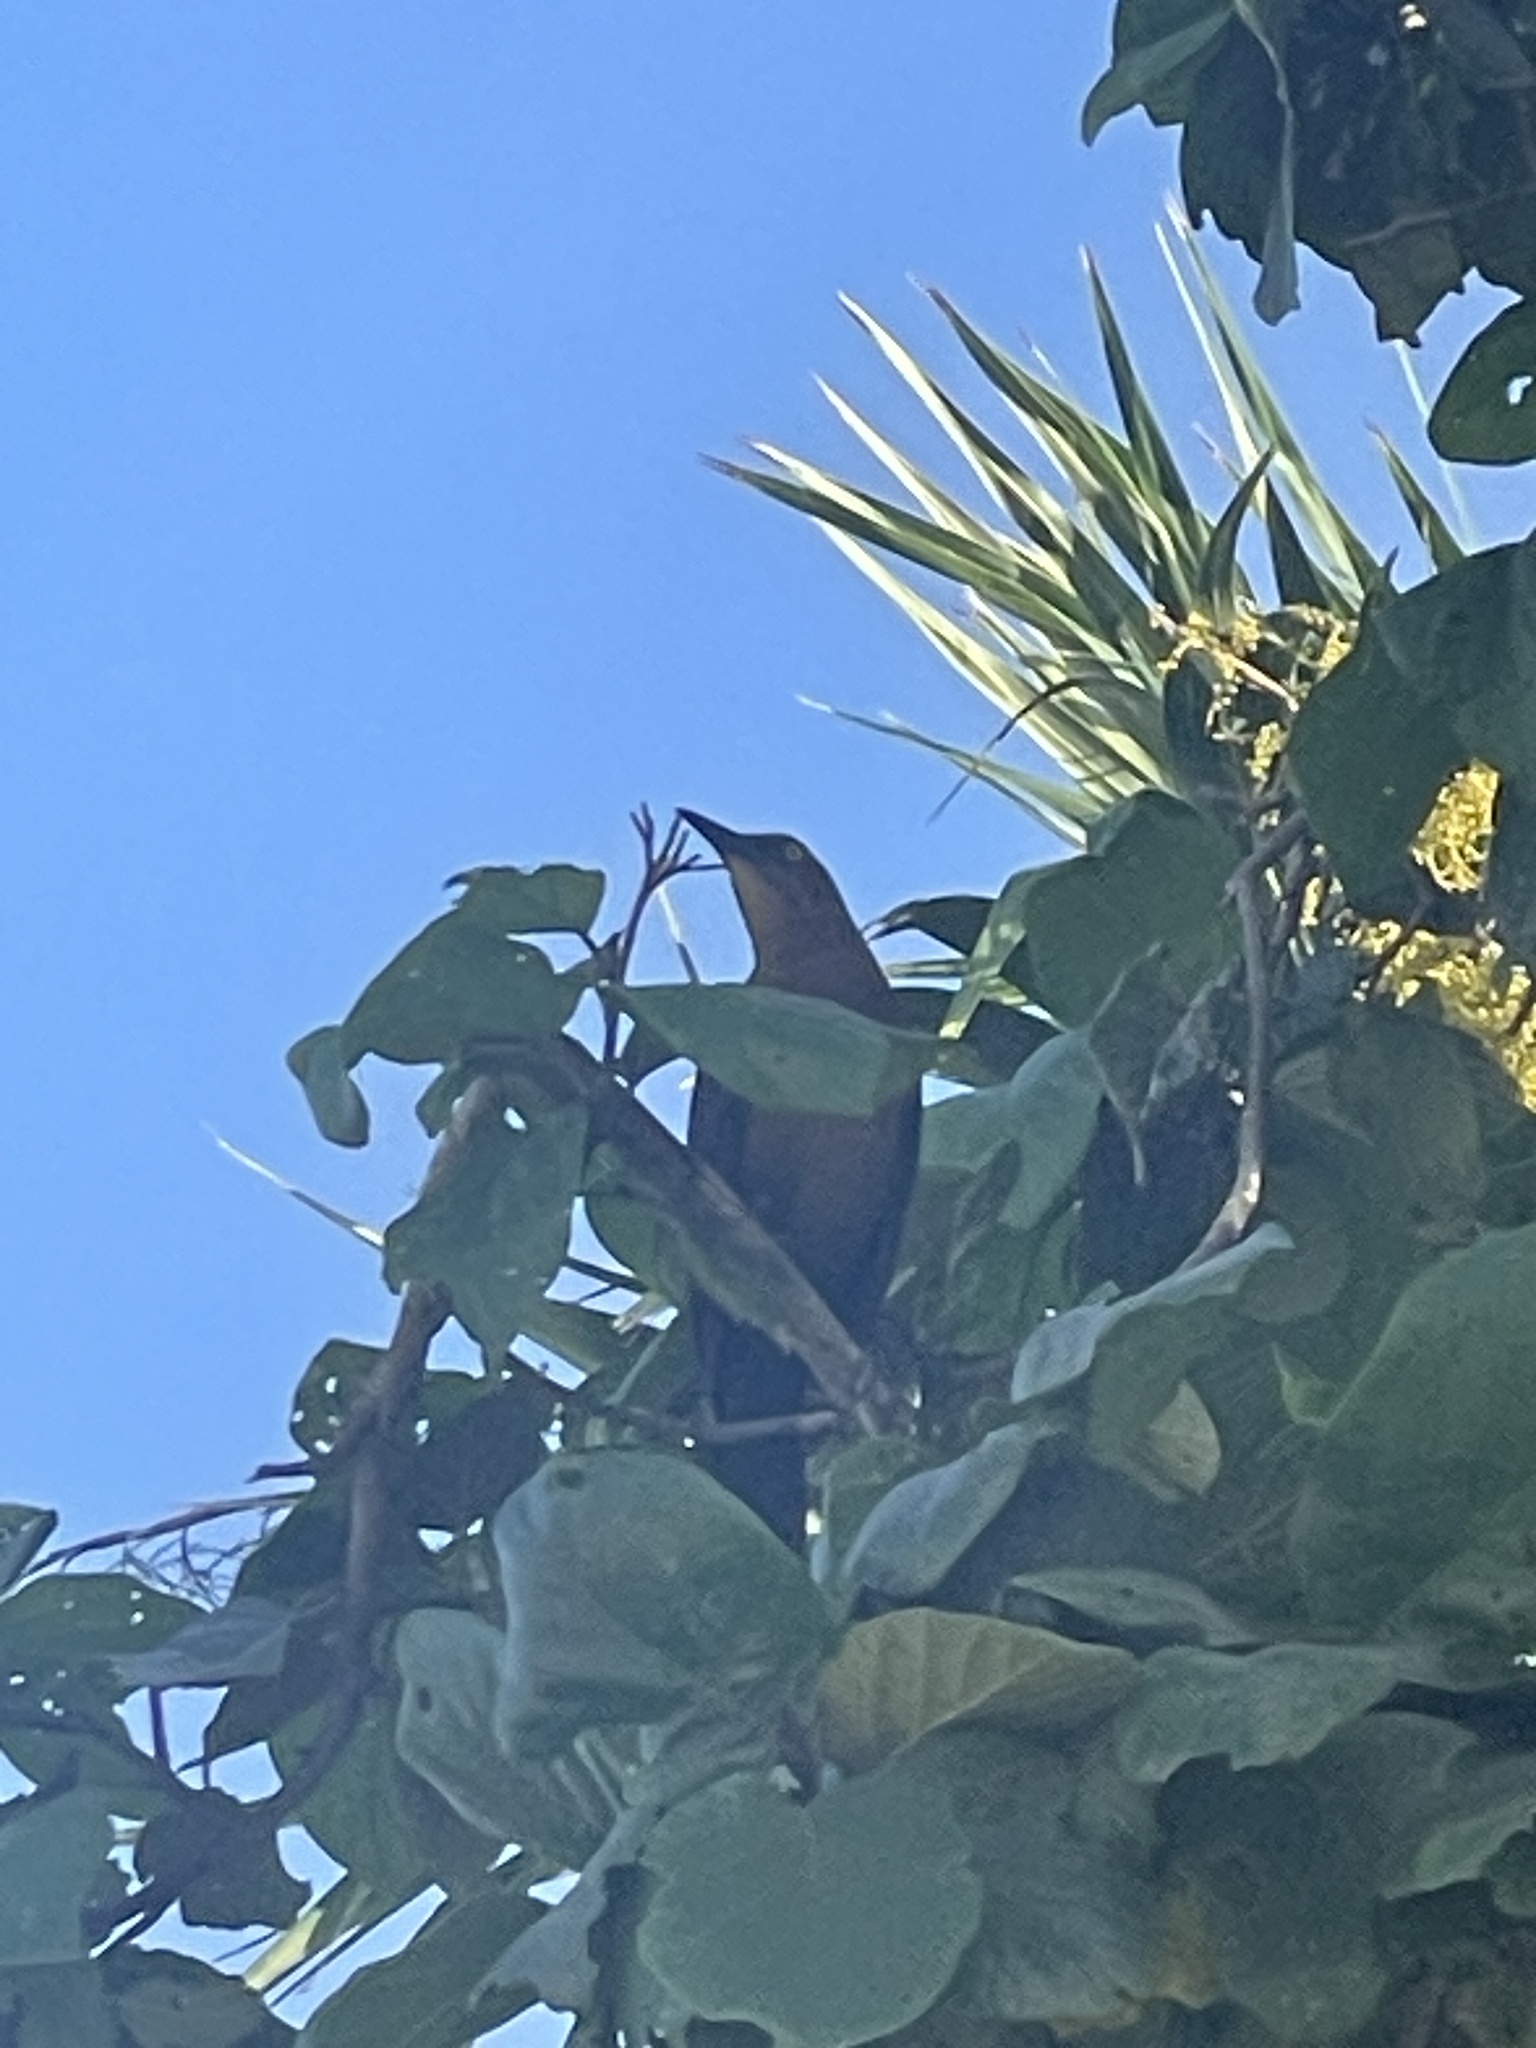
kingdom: Animalia
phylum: Chordata
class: Aves
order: Passeriformes
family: Icteridae
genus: Quiscalus
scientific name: Quiscalus mexicanus
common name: Great-tailed grackle
